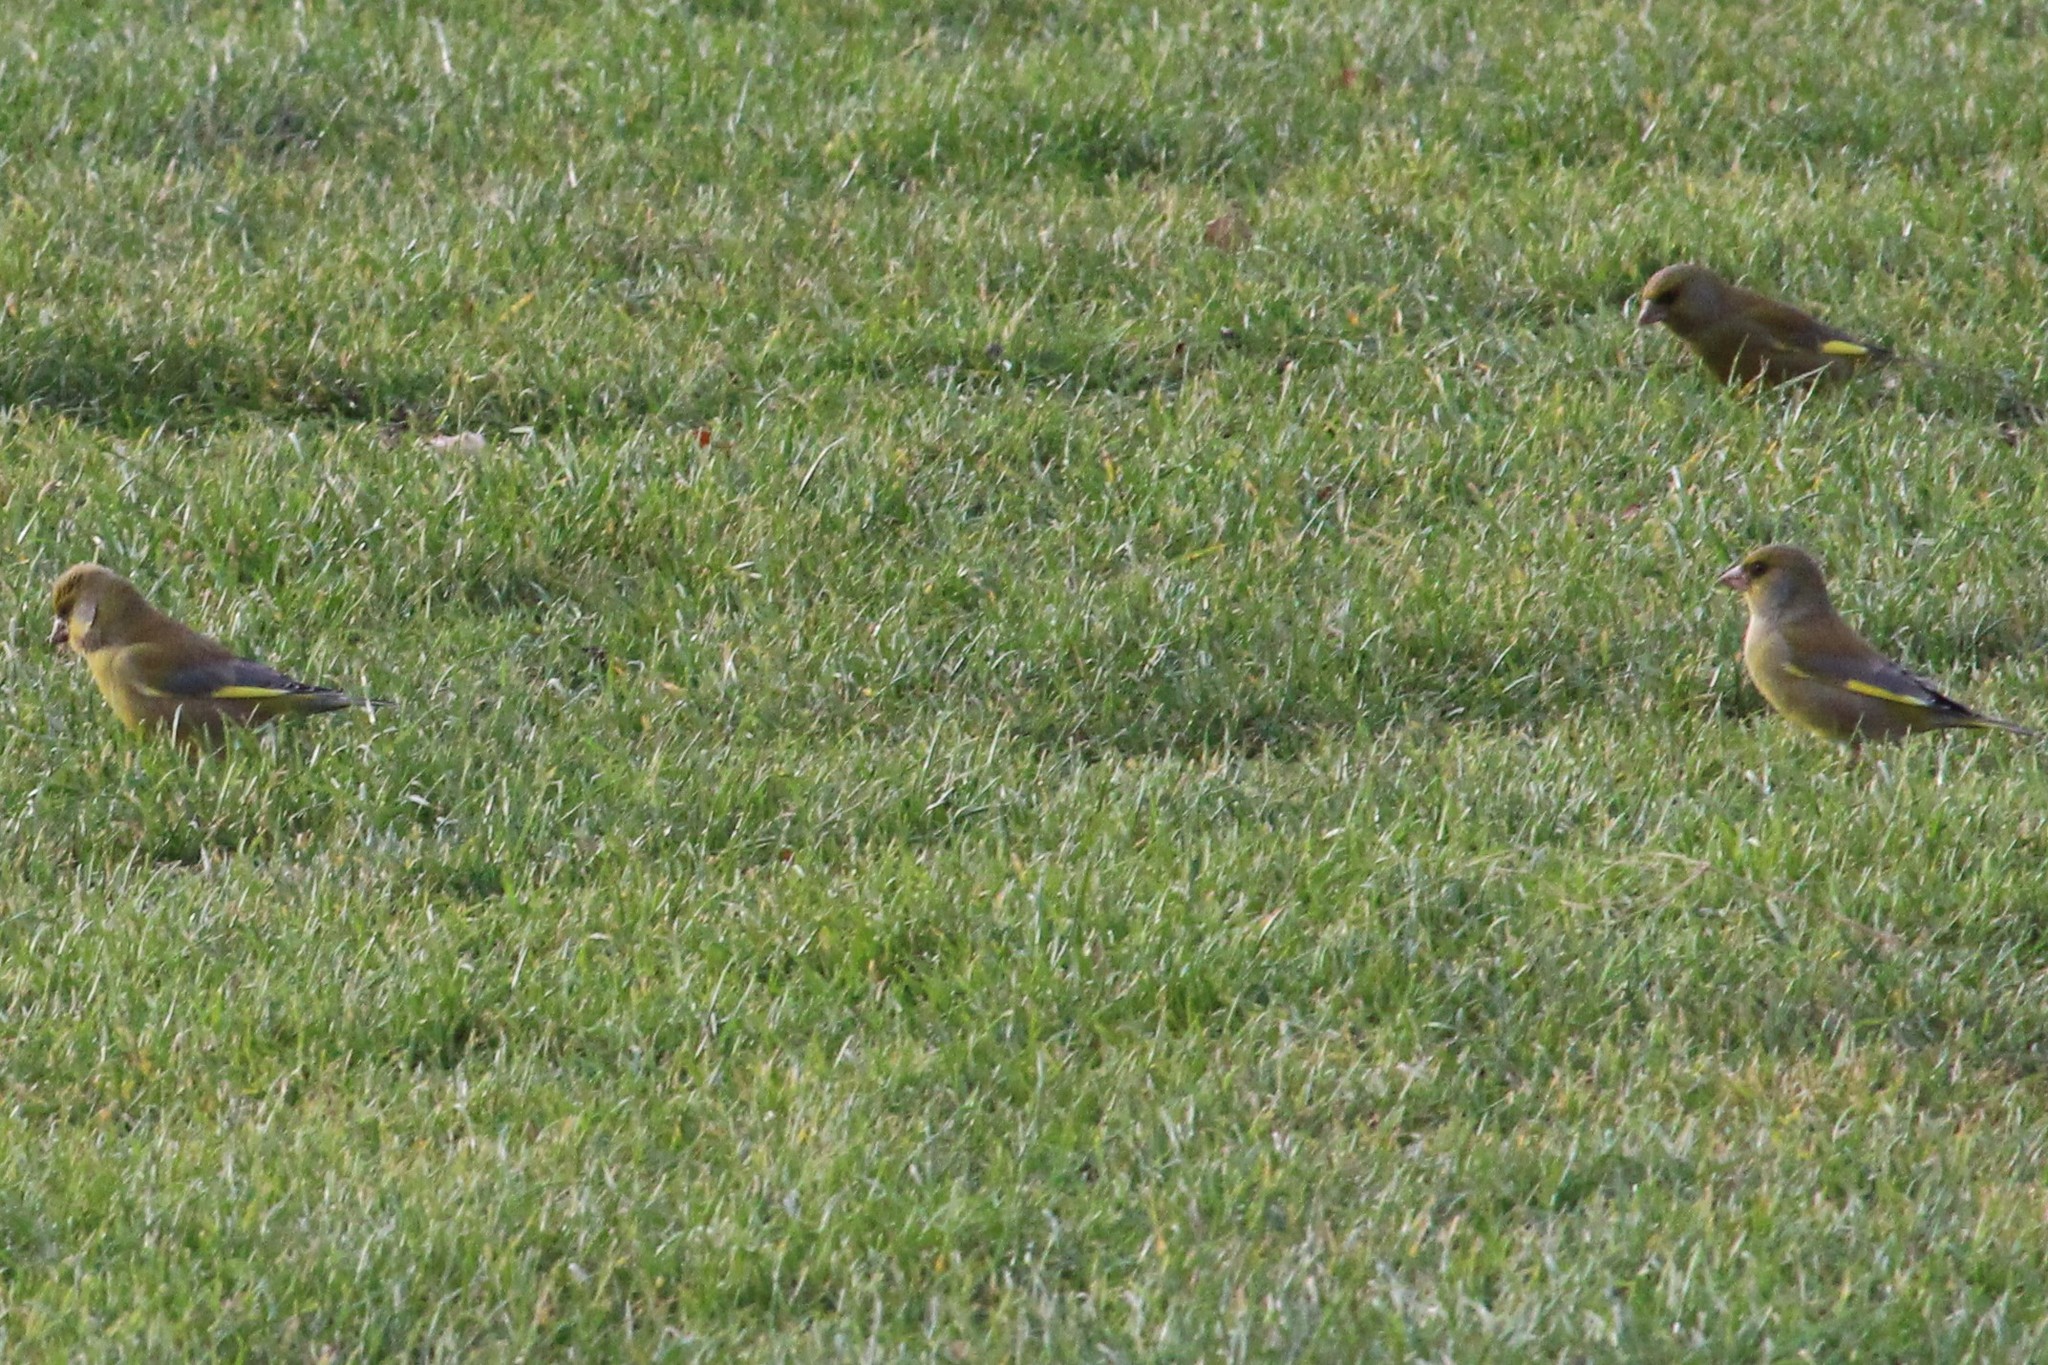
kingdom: Plantae
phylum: Tracheophyta
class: Liliopsida
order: Poales
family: Poaceae
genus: Chloris
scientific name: Chloris chloris
